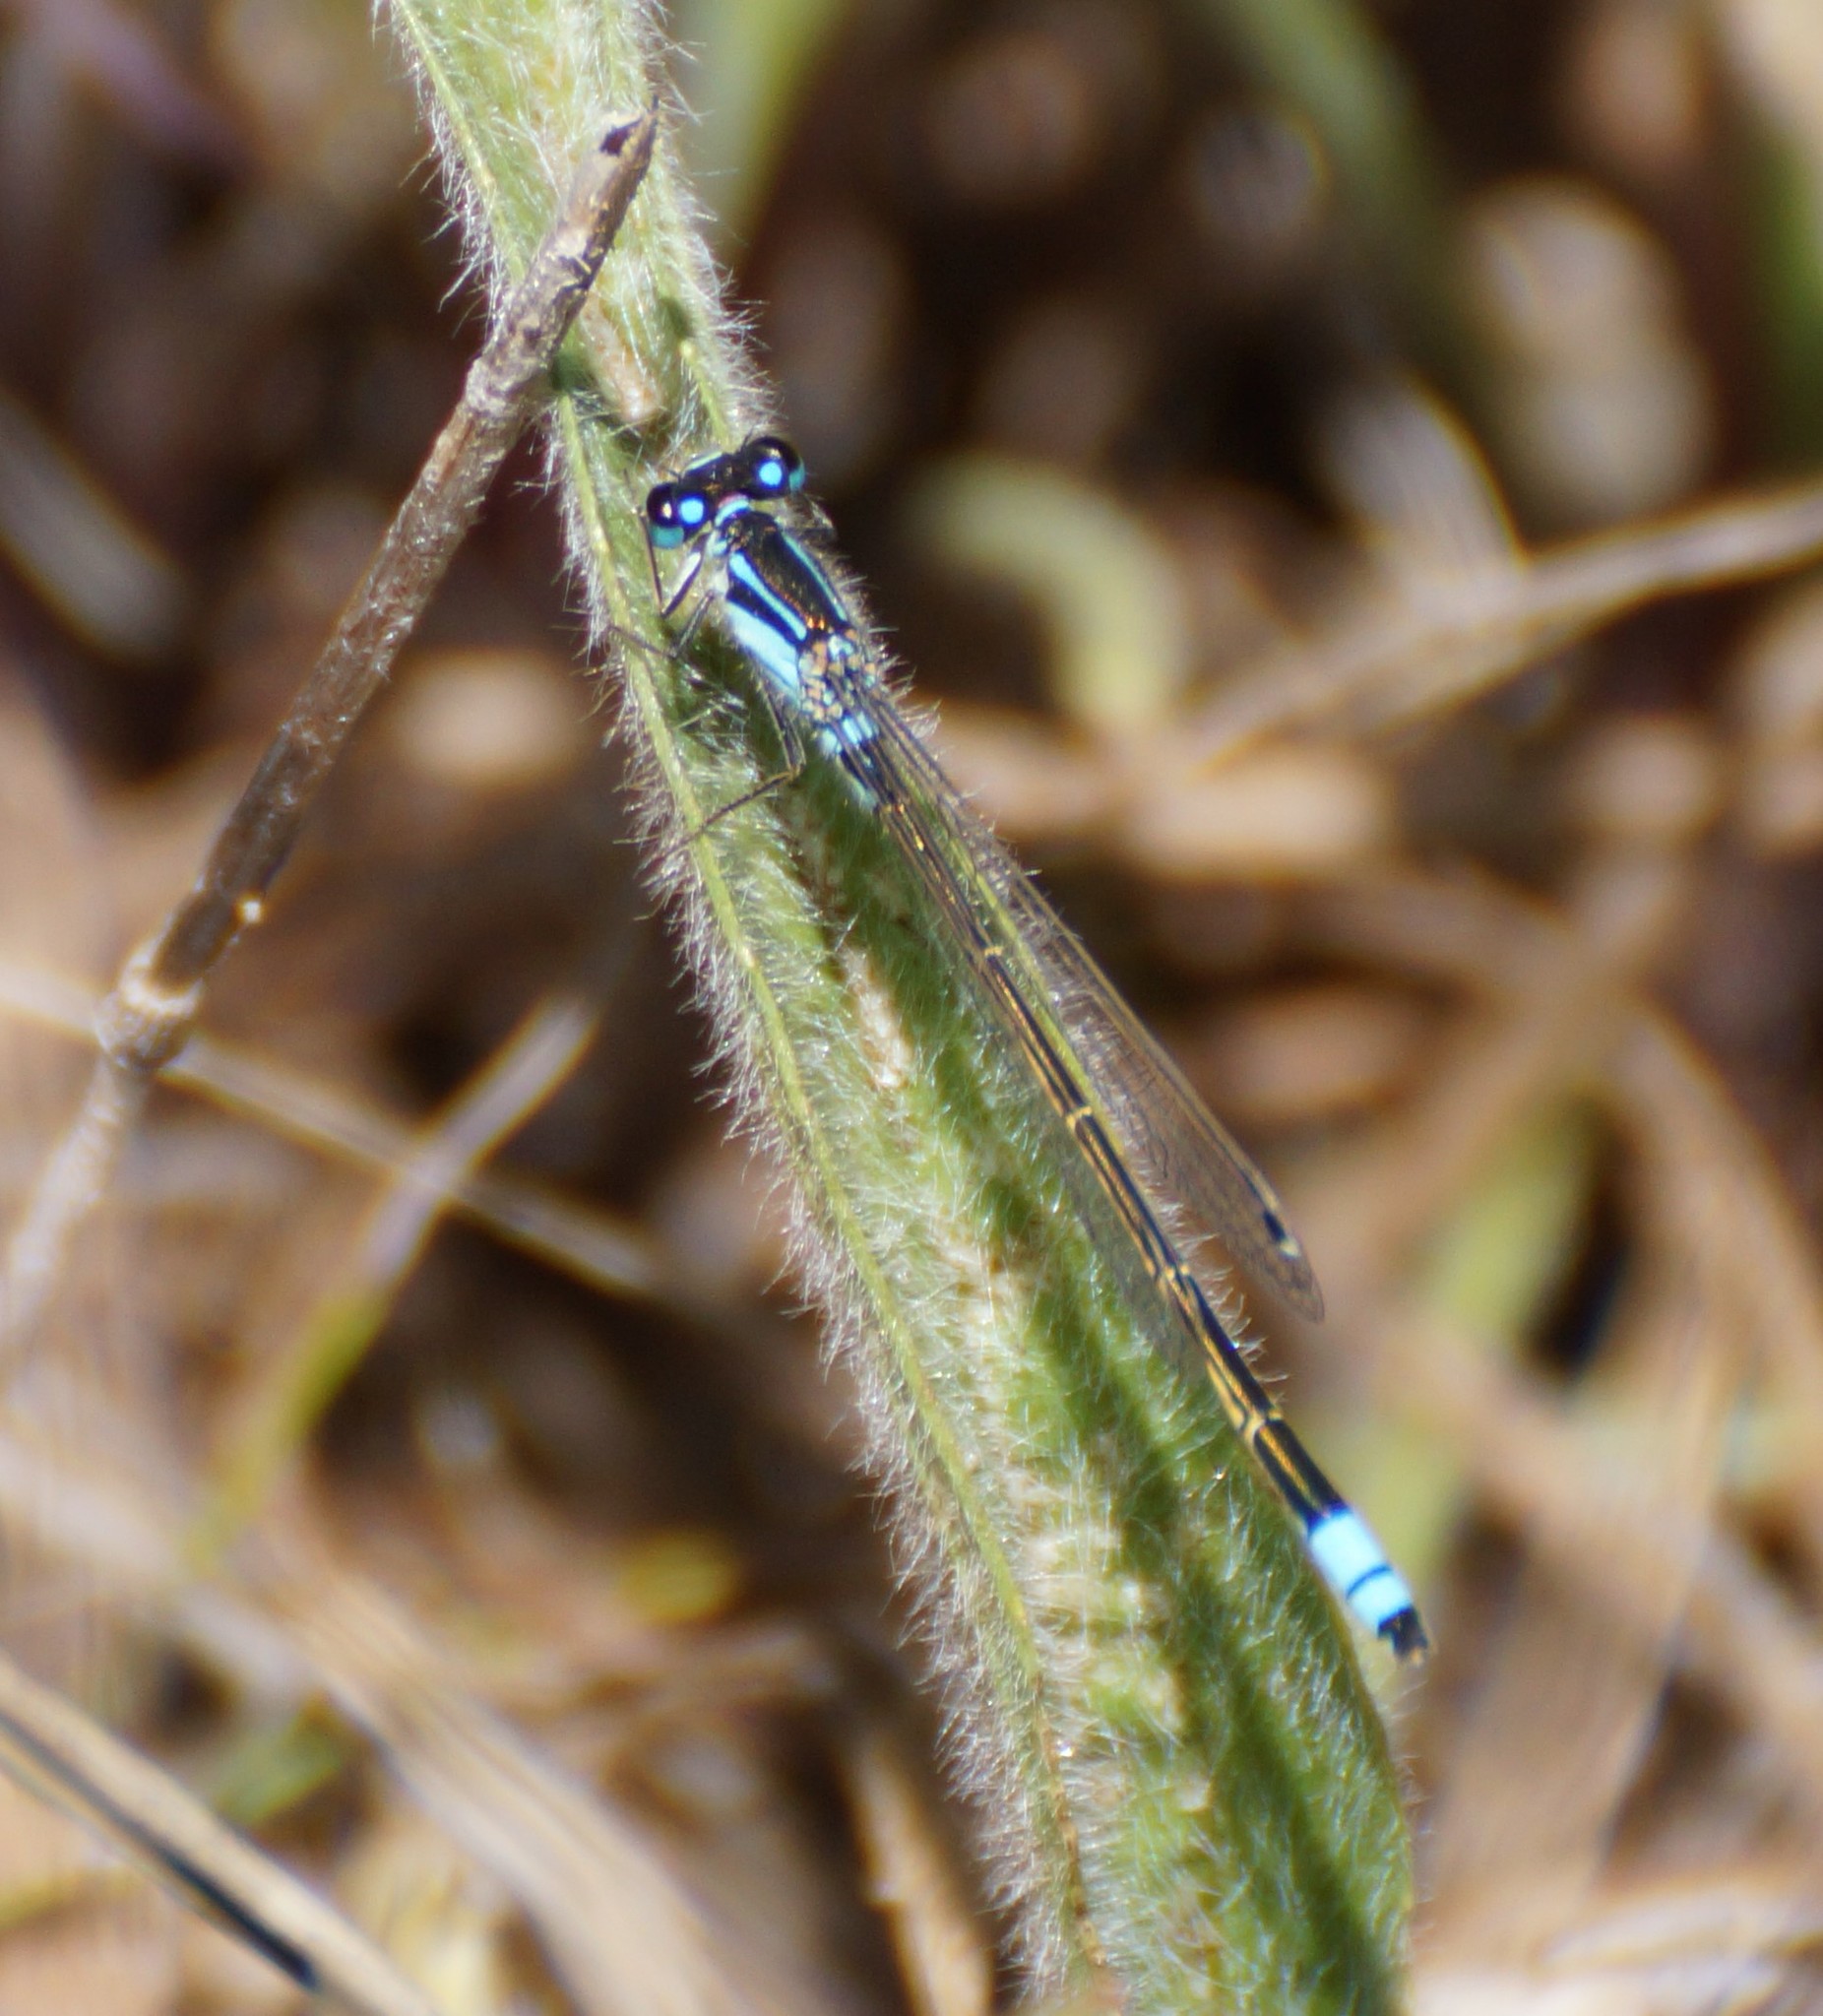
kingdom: Animalia
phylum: Arthropoda
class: Insecta
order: Odonata
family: Coenagrionidae
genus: Ischnura
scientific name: Ischnura heterosticta
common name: Common bluetail
